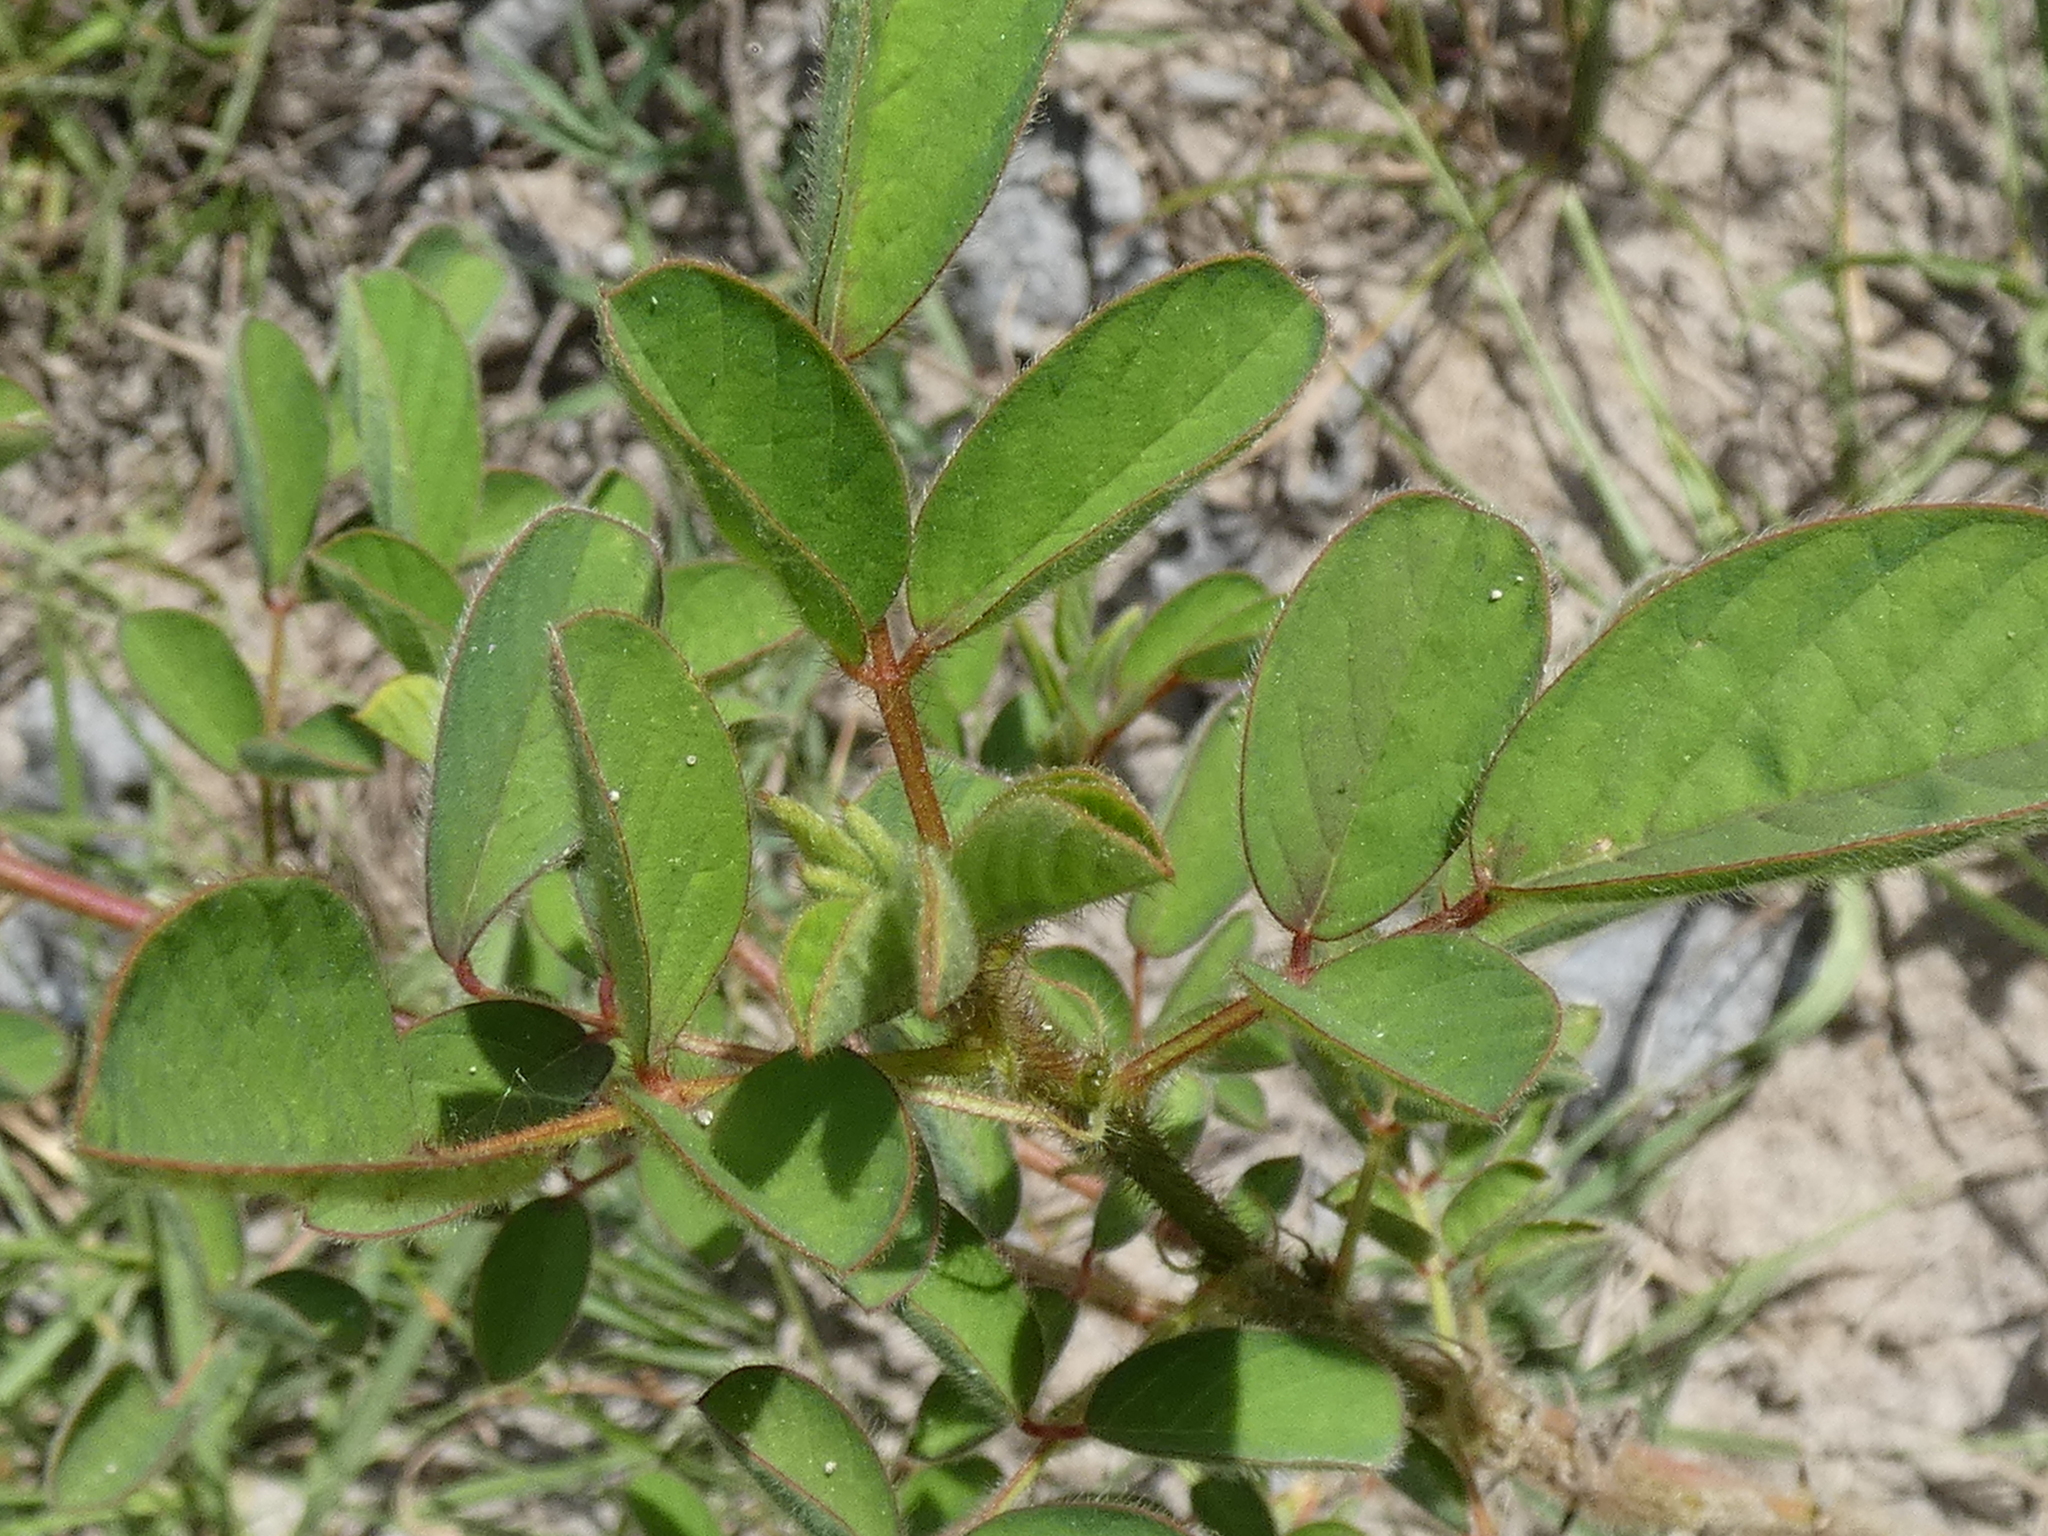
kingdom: Plantae
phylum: Tracheophyta
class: Magnoliopsida
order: Fabales
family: Fabaceae
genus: Indigofera
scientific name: Indigofera hirsuta
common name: Hairy indigo
